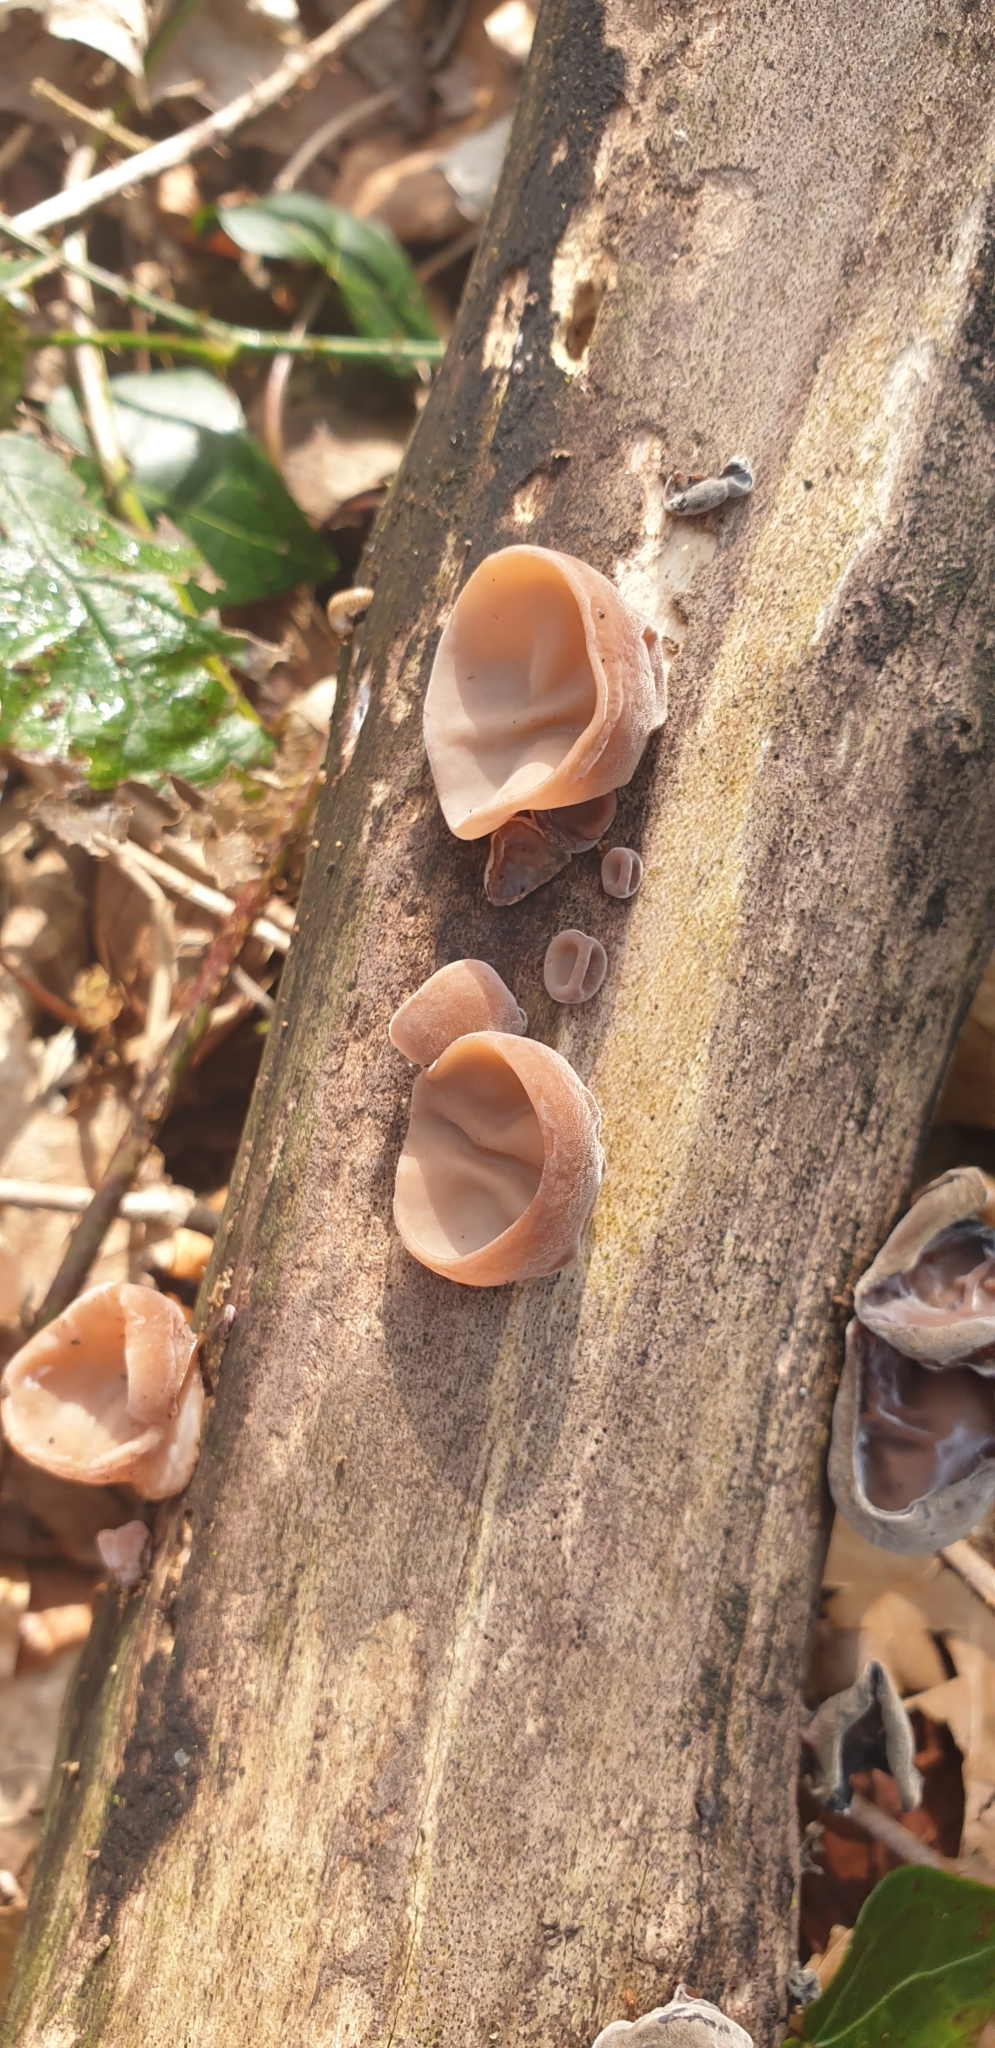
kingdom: Fungi
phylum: Basidiomycota
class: Agaricomycetes
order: Auriculariales
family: Auriculariaceae
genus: Auricularia
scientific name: Auricularia auricula-judae
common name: Jelly ear
